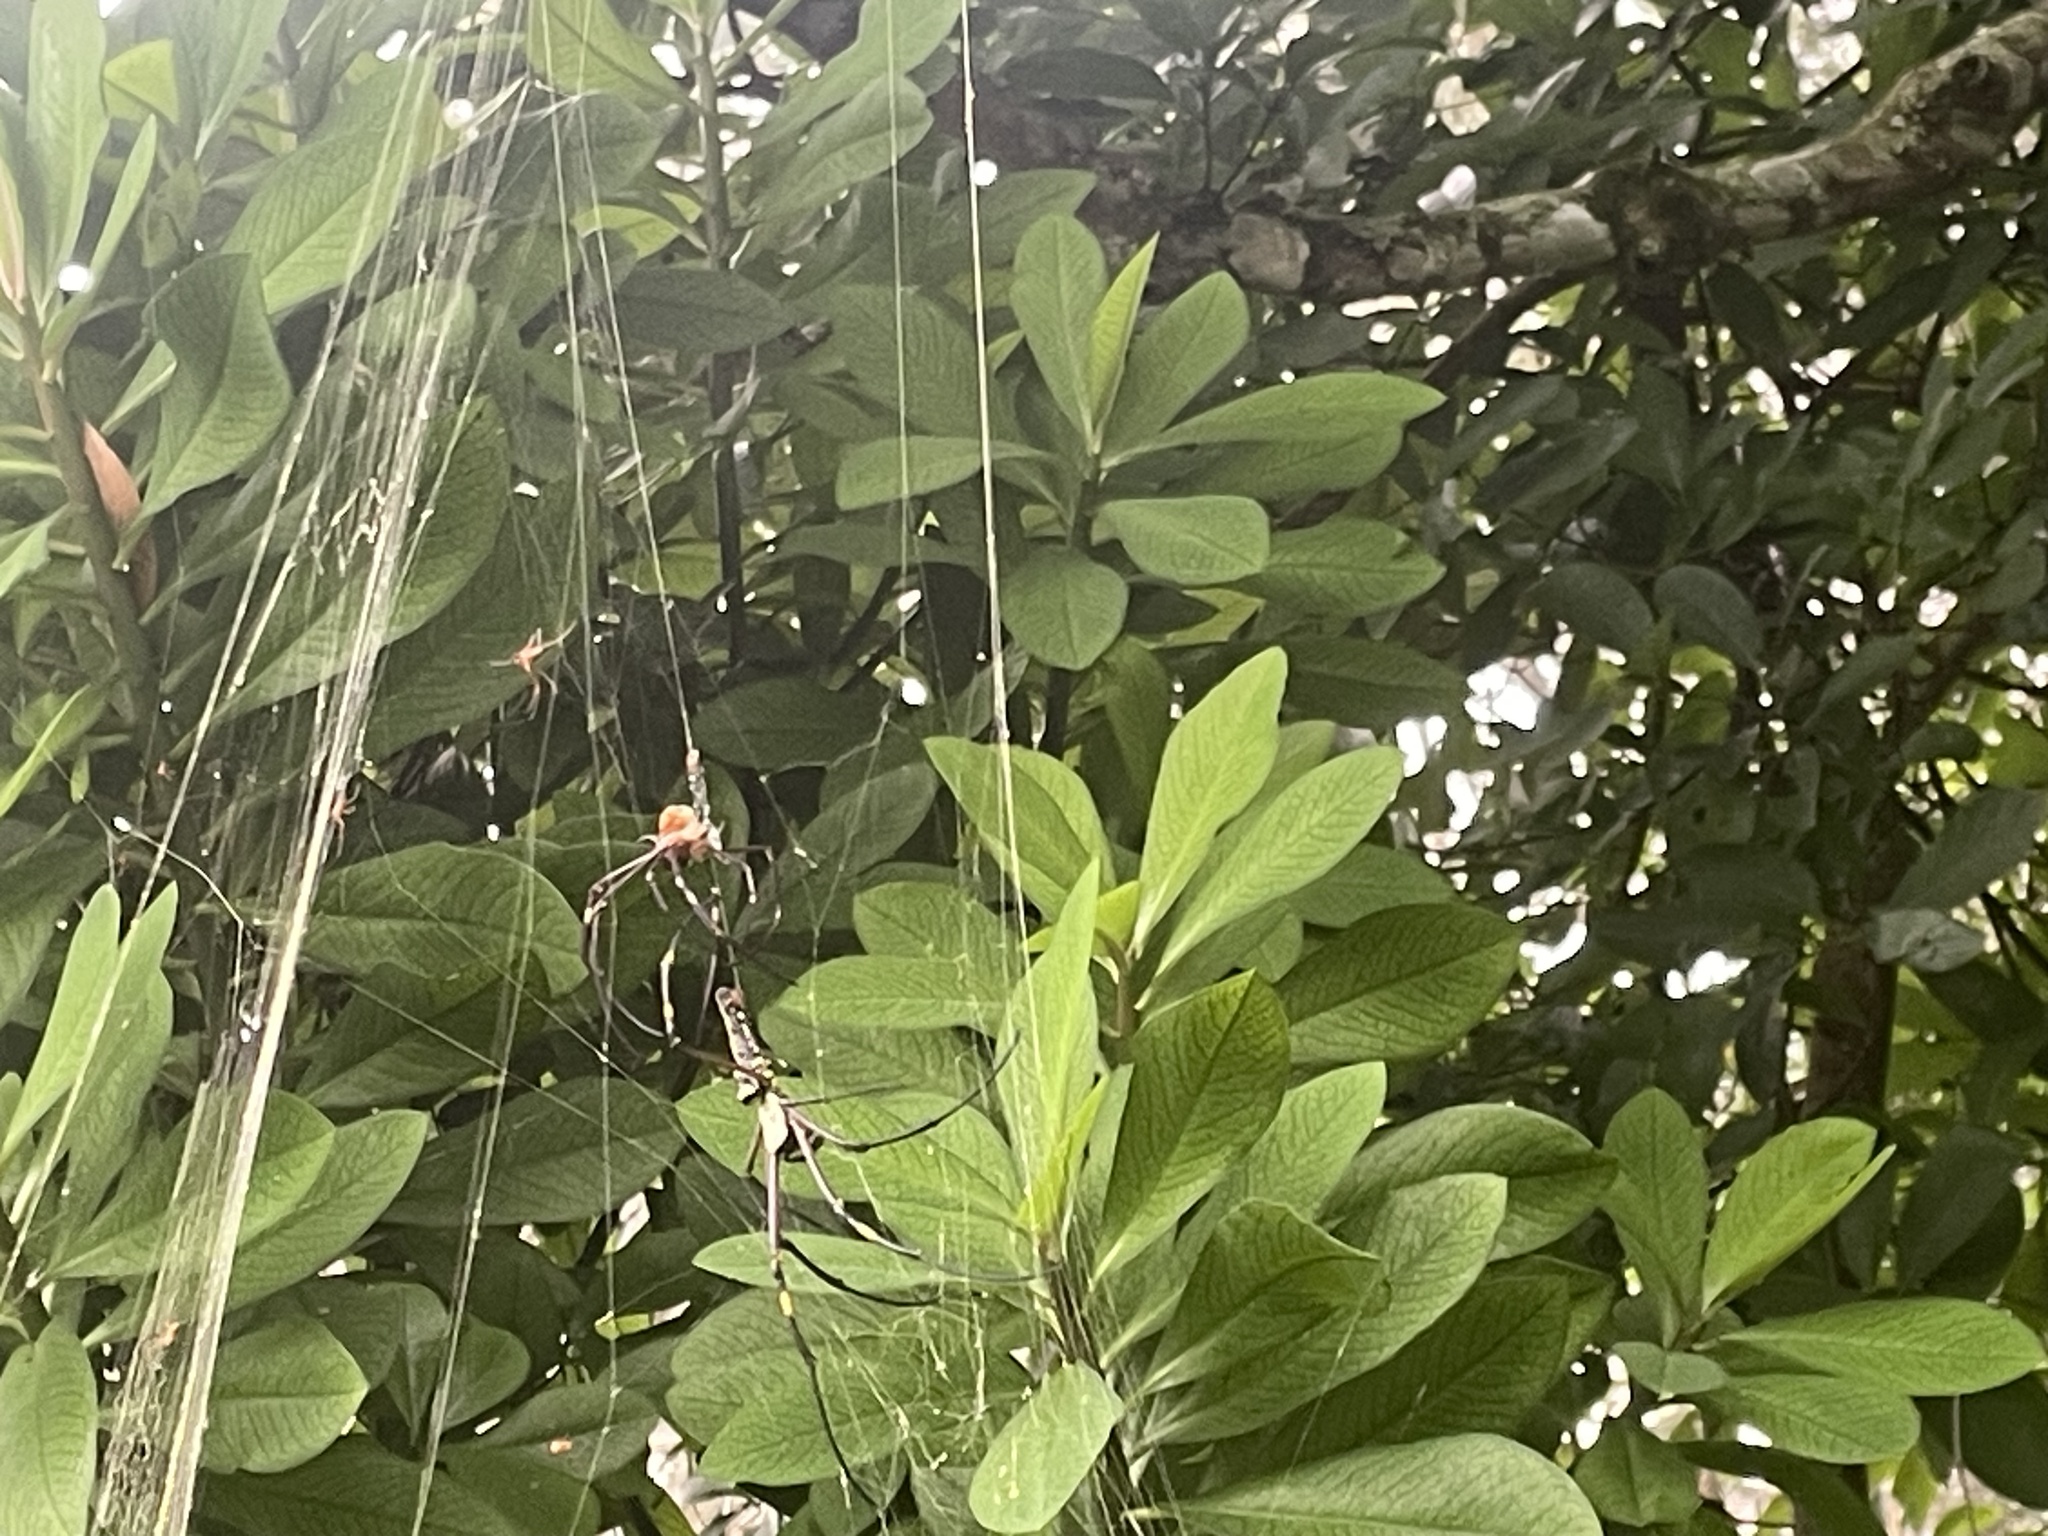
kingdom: Animalia
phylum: Arthropoda
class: Arachnida
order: Araneae
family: Araneidae
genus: Nephila
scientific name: Nephila pilipes
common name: Giant golden orb weaver
